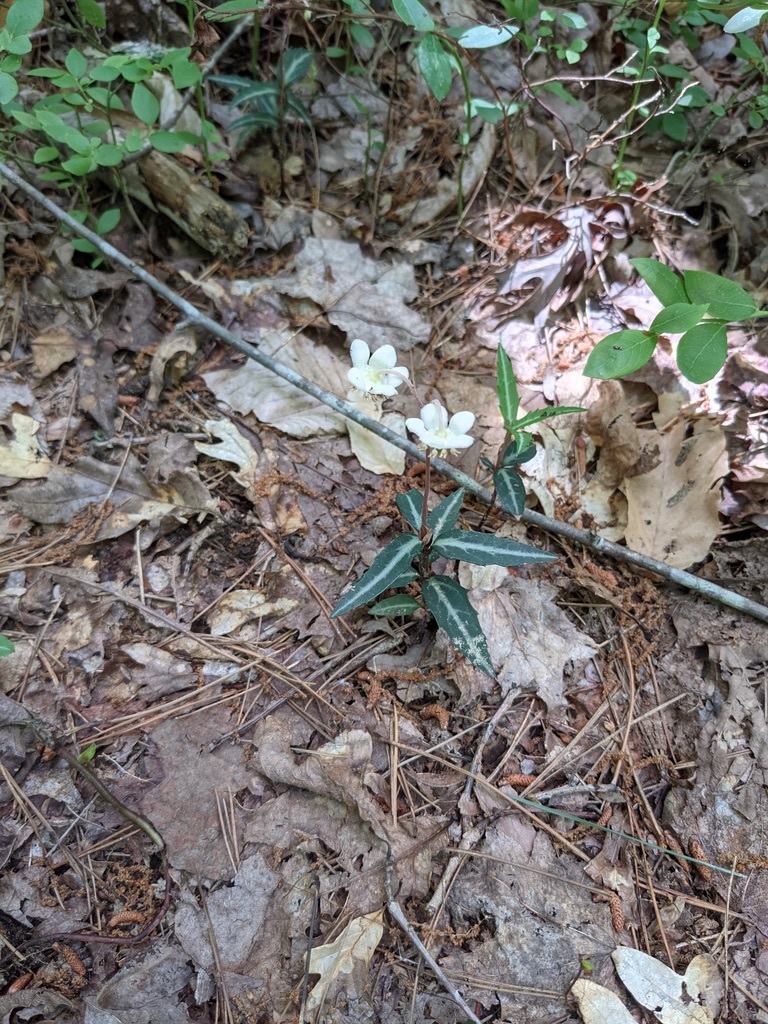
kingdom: Plantae
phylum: Tracheophyta
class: Magnoliopsida
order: Ericales
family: Ericaceae
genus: Chimaphila
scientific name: Chimaphila maculata
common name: Spotted pipsissewa
